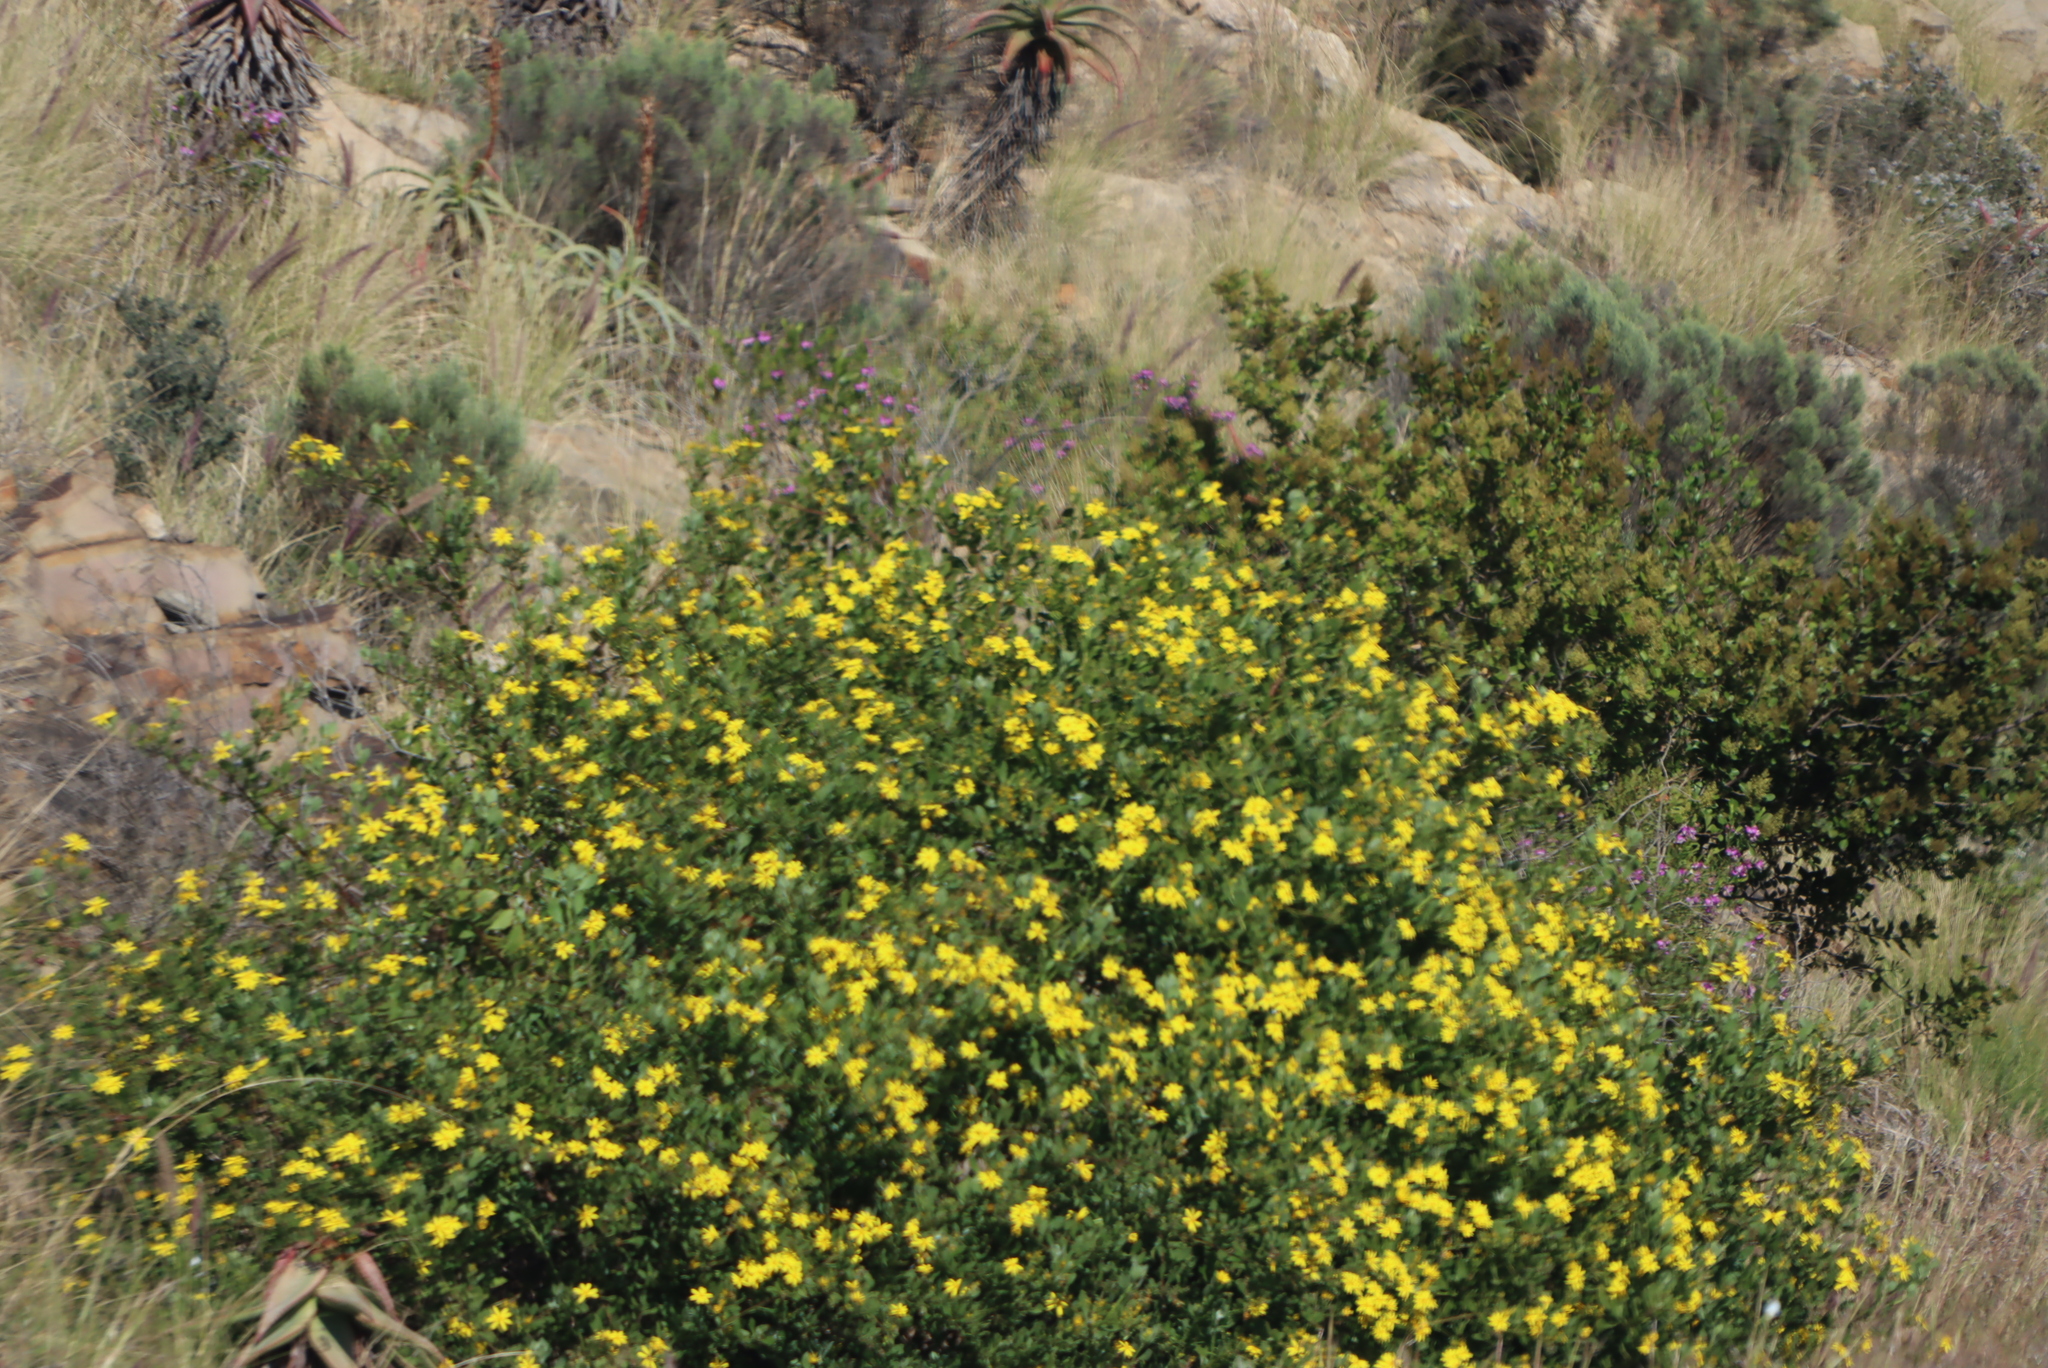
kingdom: Plantae
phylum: Tracheophyta
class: Magnoliopsida
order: Asterales
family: Asteraceae
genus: Osteospermum
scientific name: Osteospermum moniliferum
